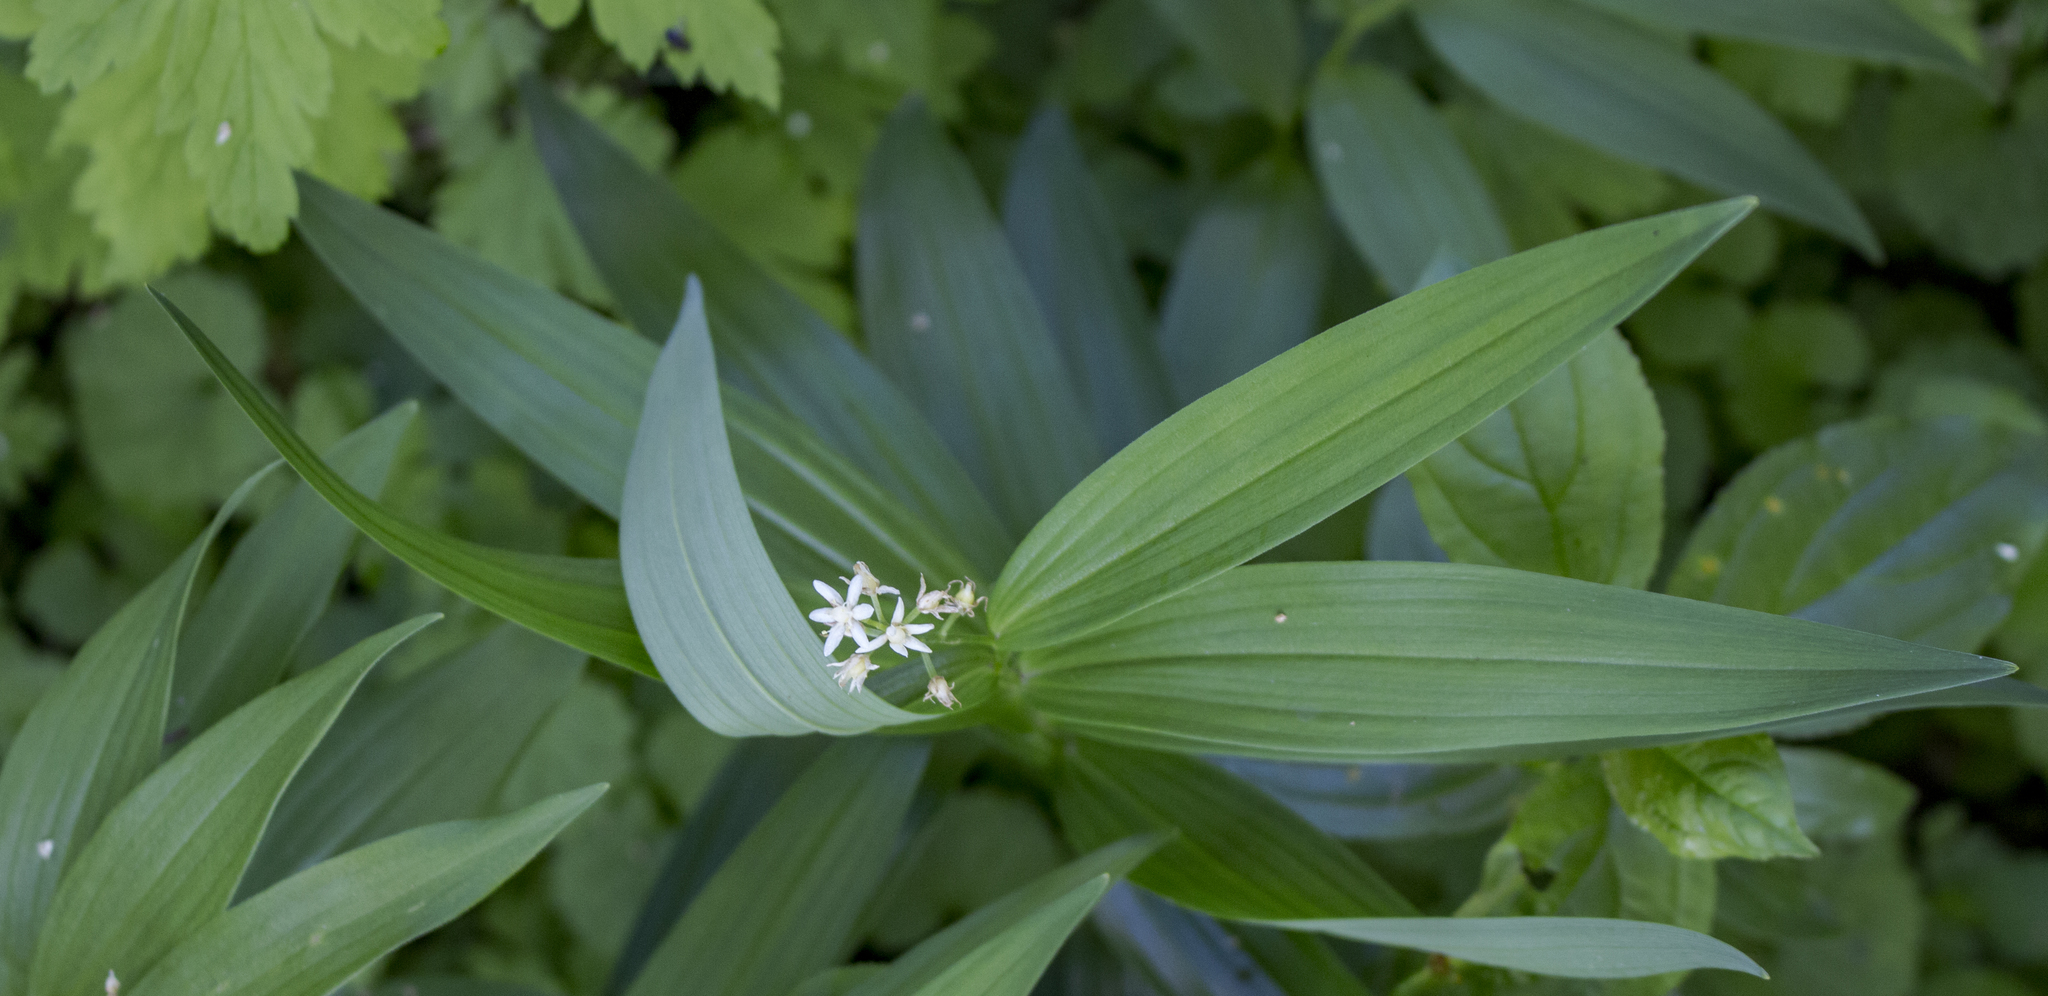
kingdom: Plantae
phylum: Tracheophyta
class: Liliopsida
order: Asparagales
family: Asparagaceae
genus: Maianthemum
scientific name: Maianthemum stellatum
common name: Little false solomon's seal
